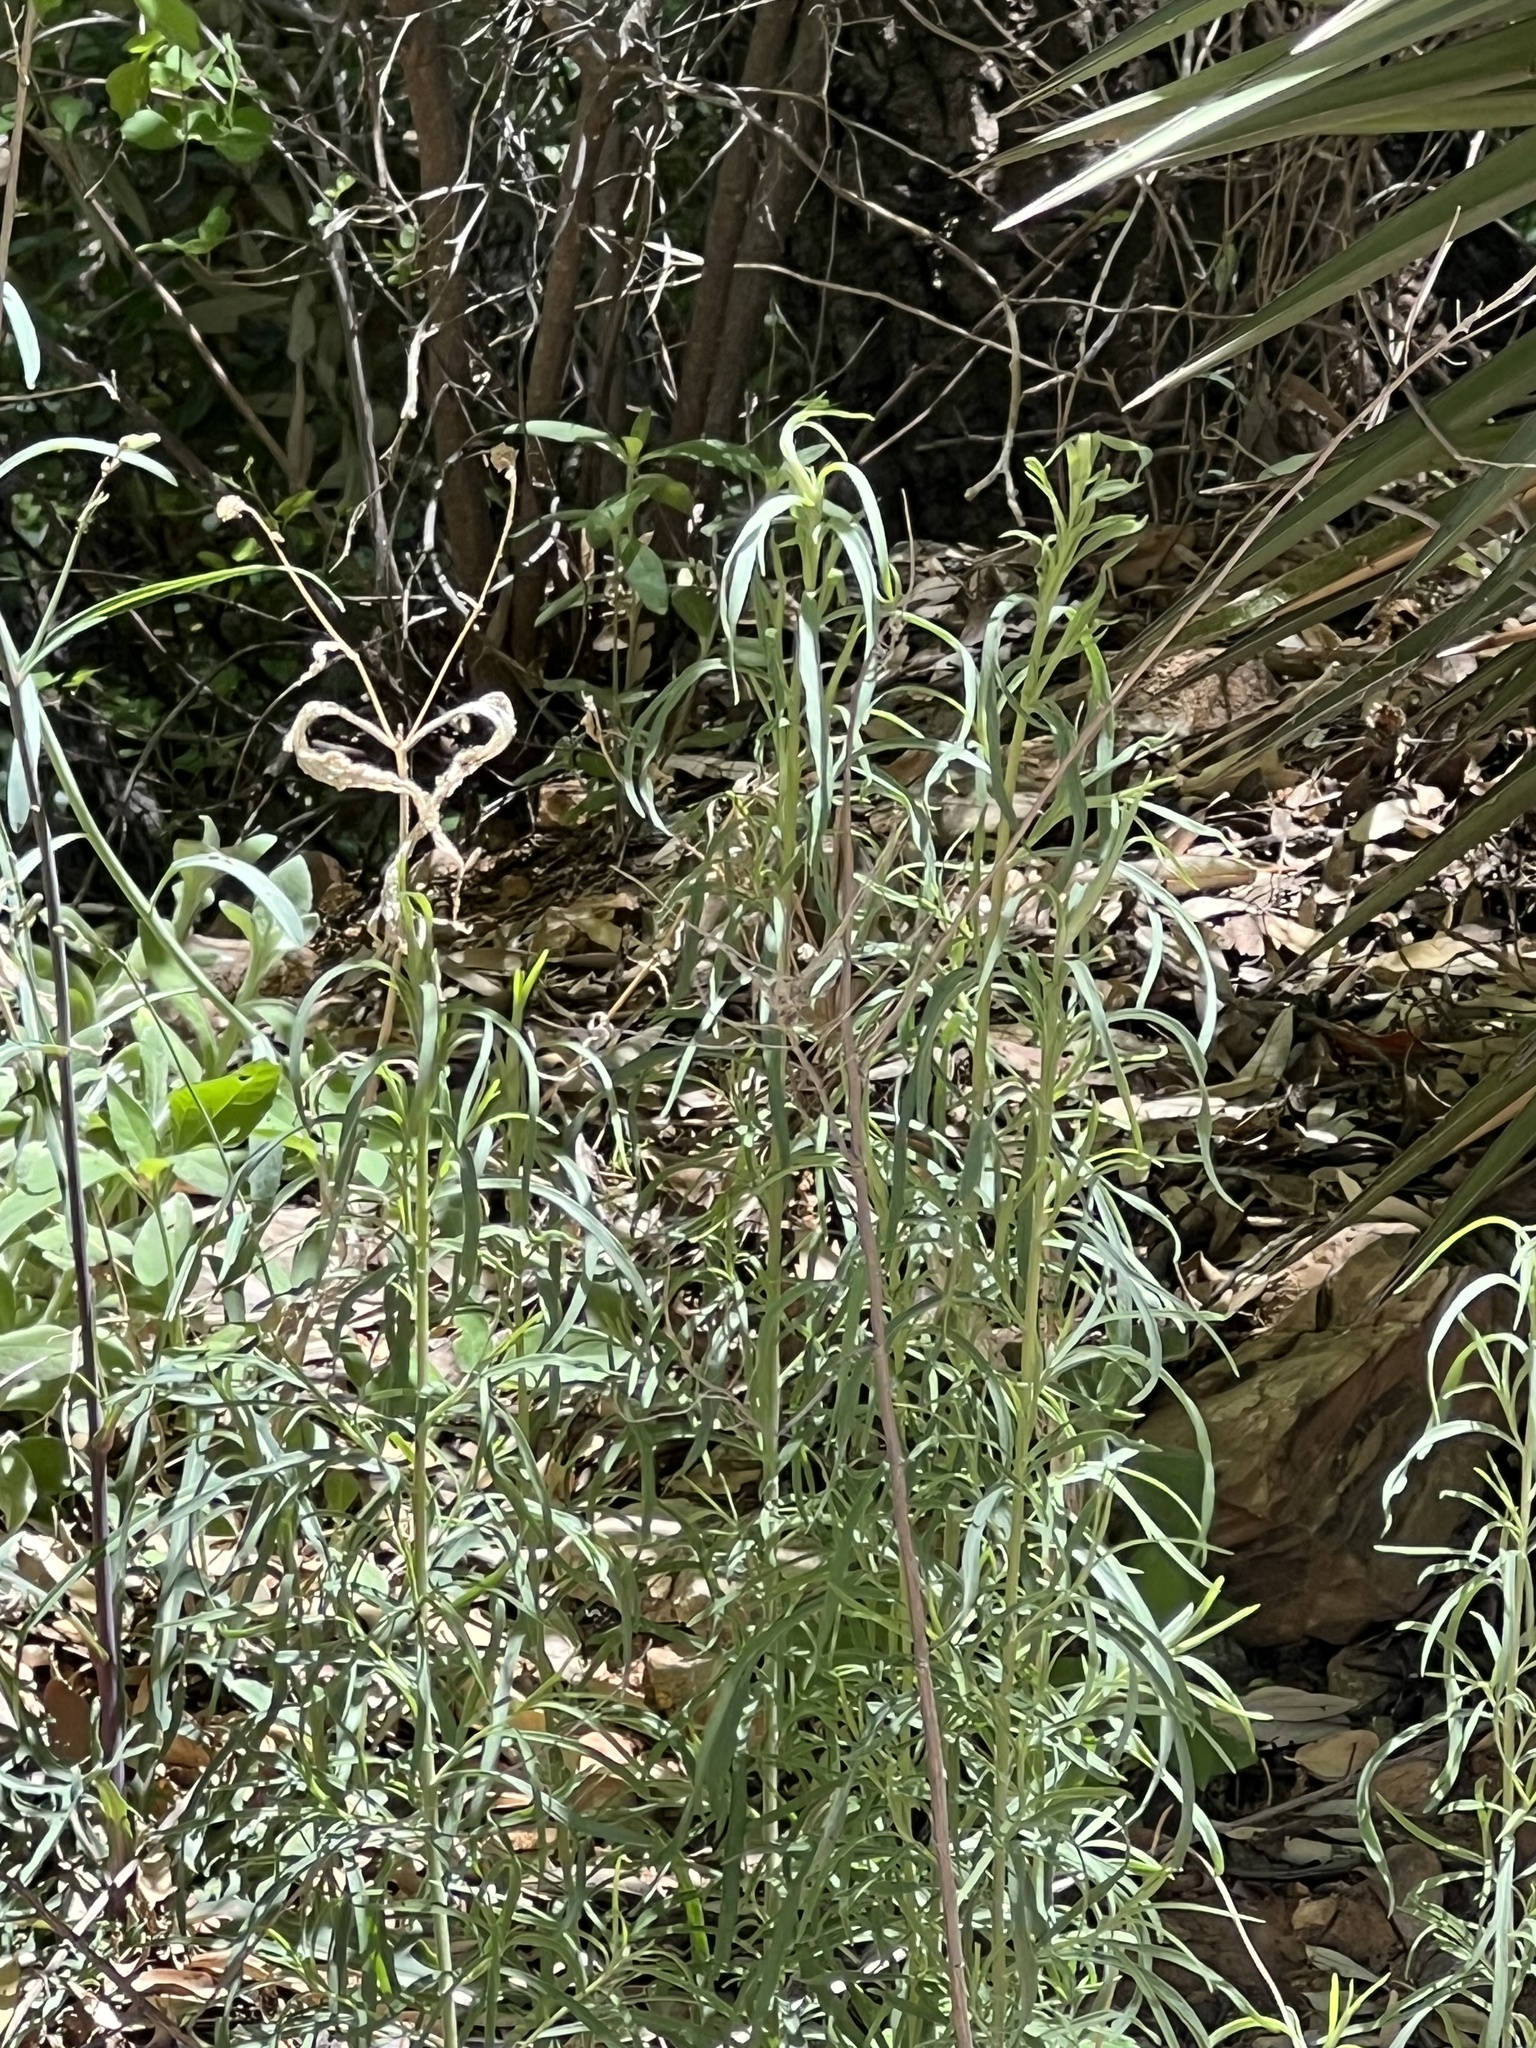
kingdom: Plantae
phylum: Tracheophyta
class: Magnoliopsida
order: Asterales
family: Asteraceae
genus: Gymnosperma
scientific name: Gymnosperma glutinosum
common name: Gumhead
